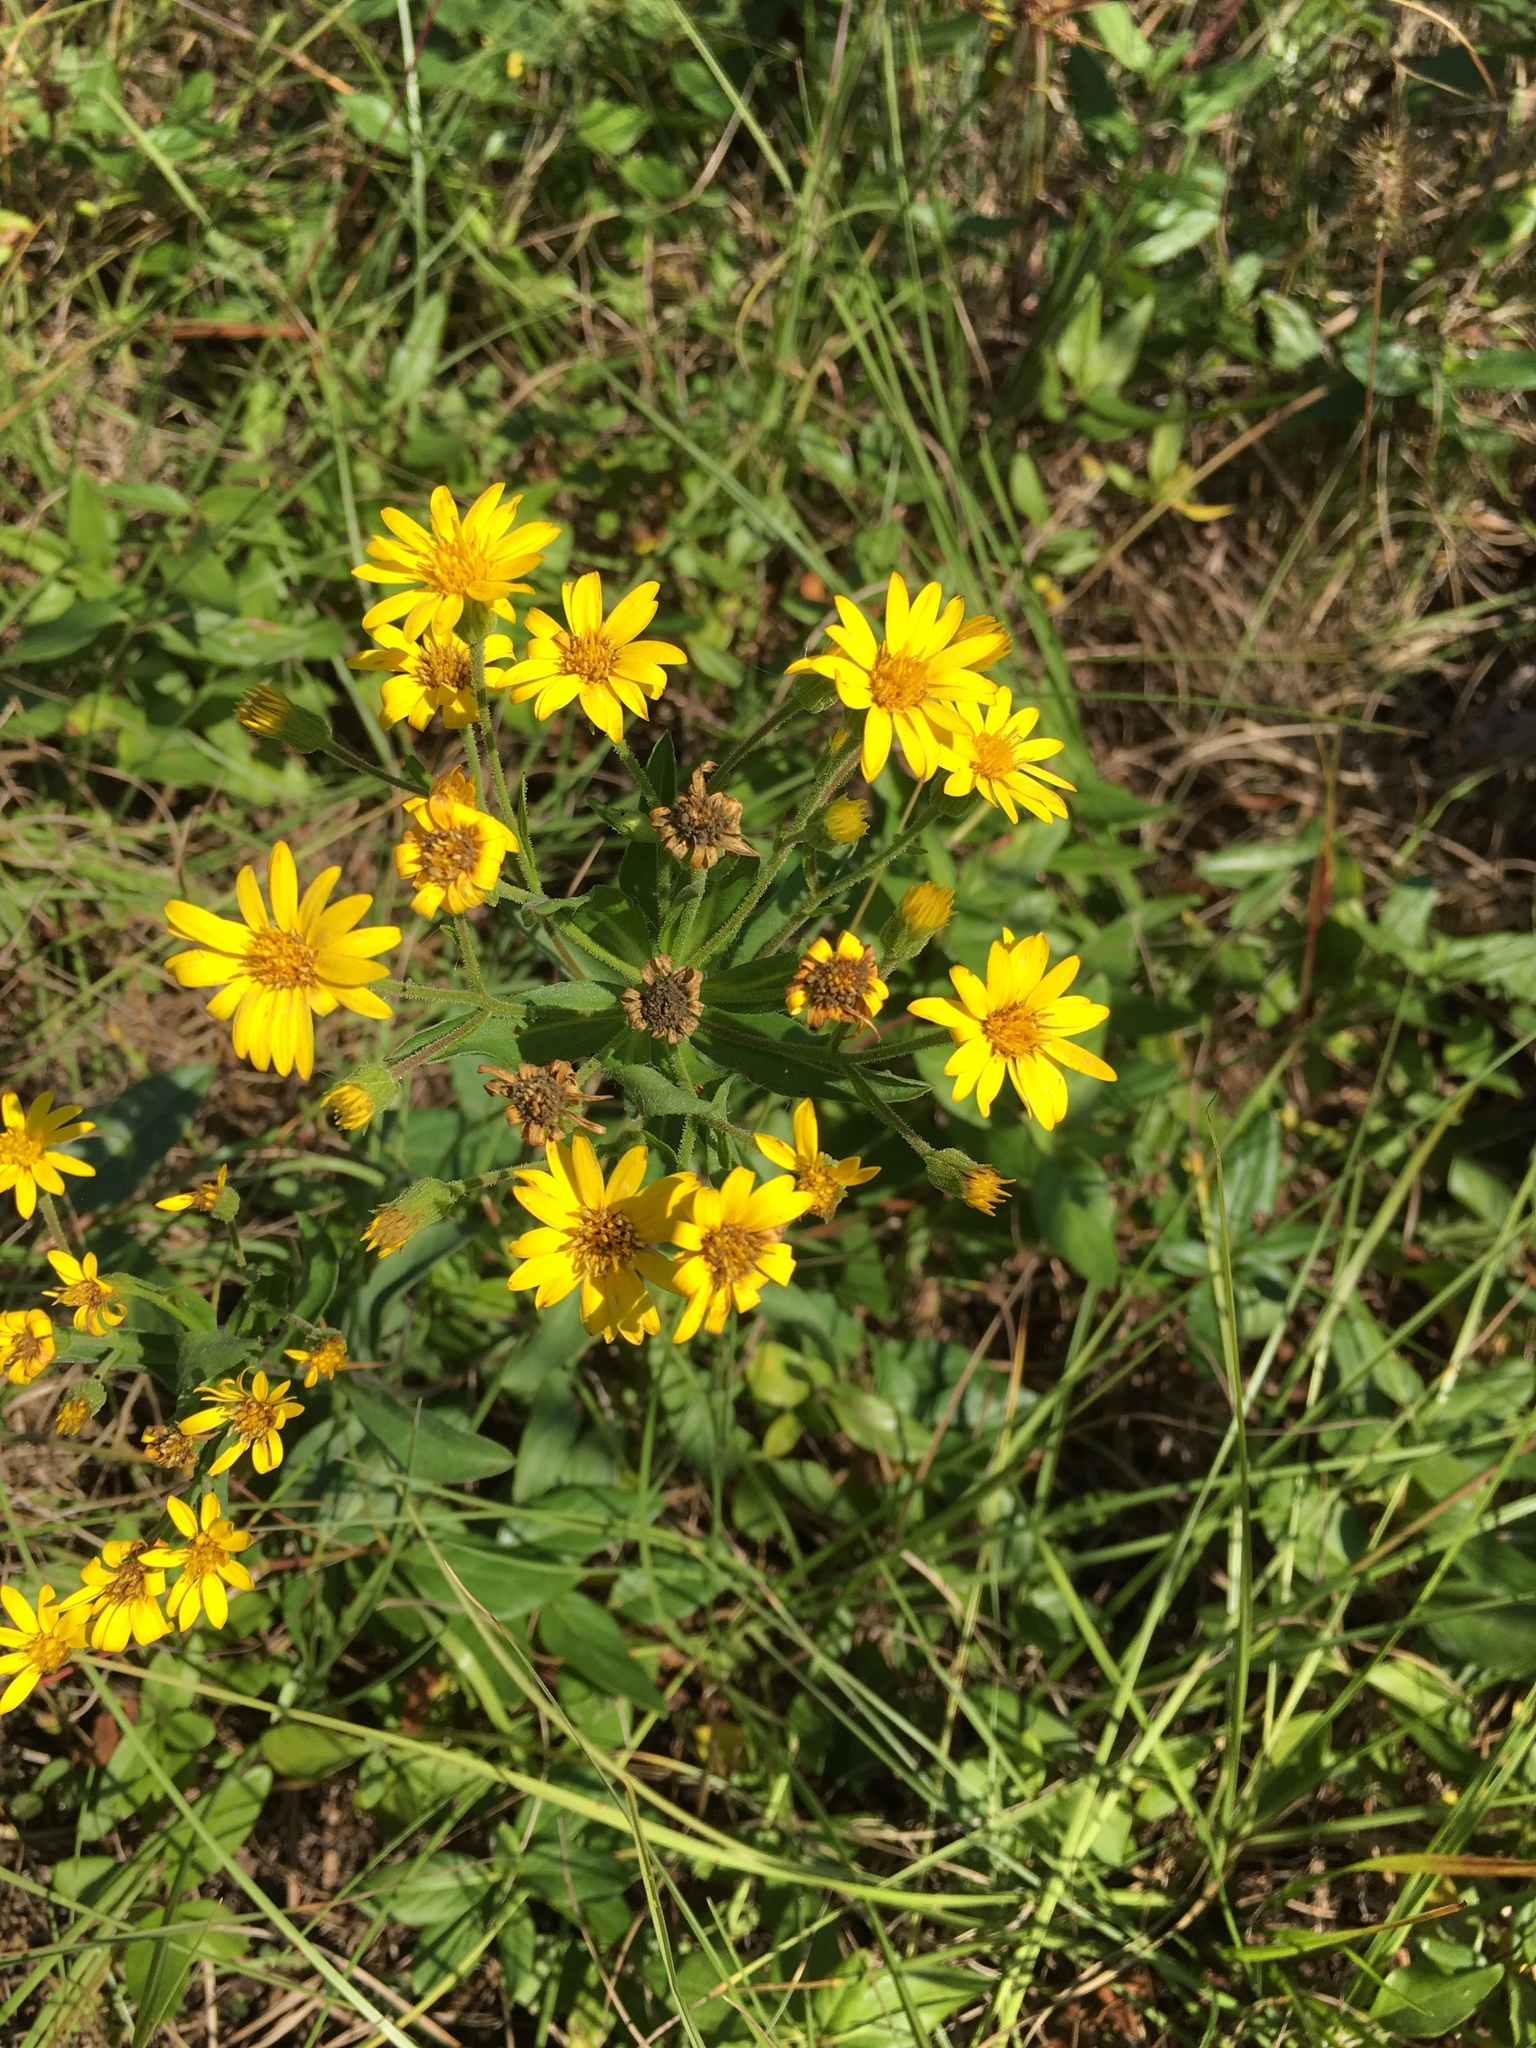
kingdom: Plantae
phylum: Tracheophyta
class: Magnoliopsida
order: Asterales
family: Asteraceae
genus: Chrysopsis
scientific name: Chrysopsis mariana
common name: Maryland golden-aster
